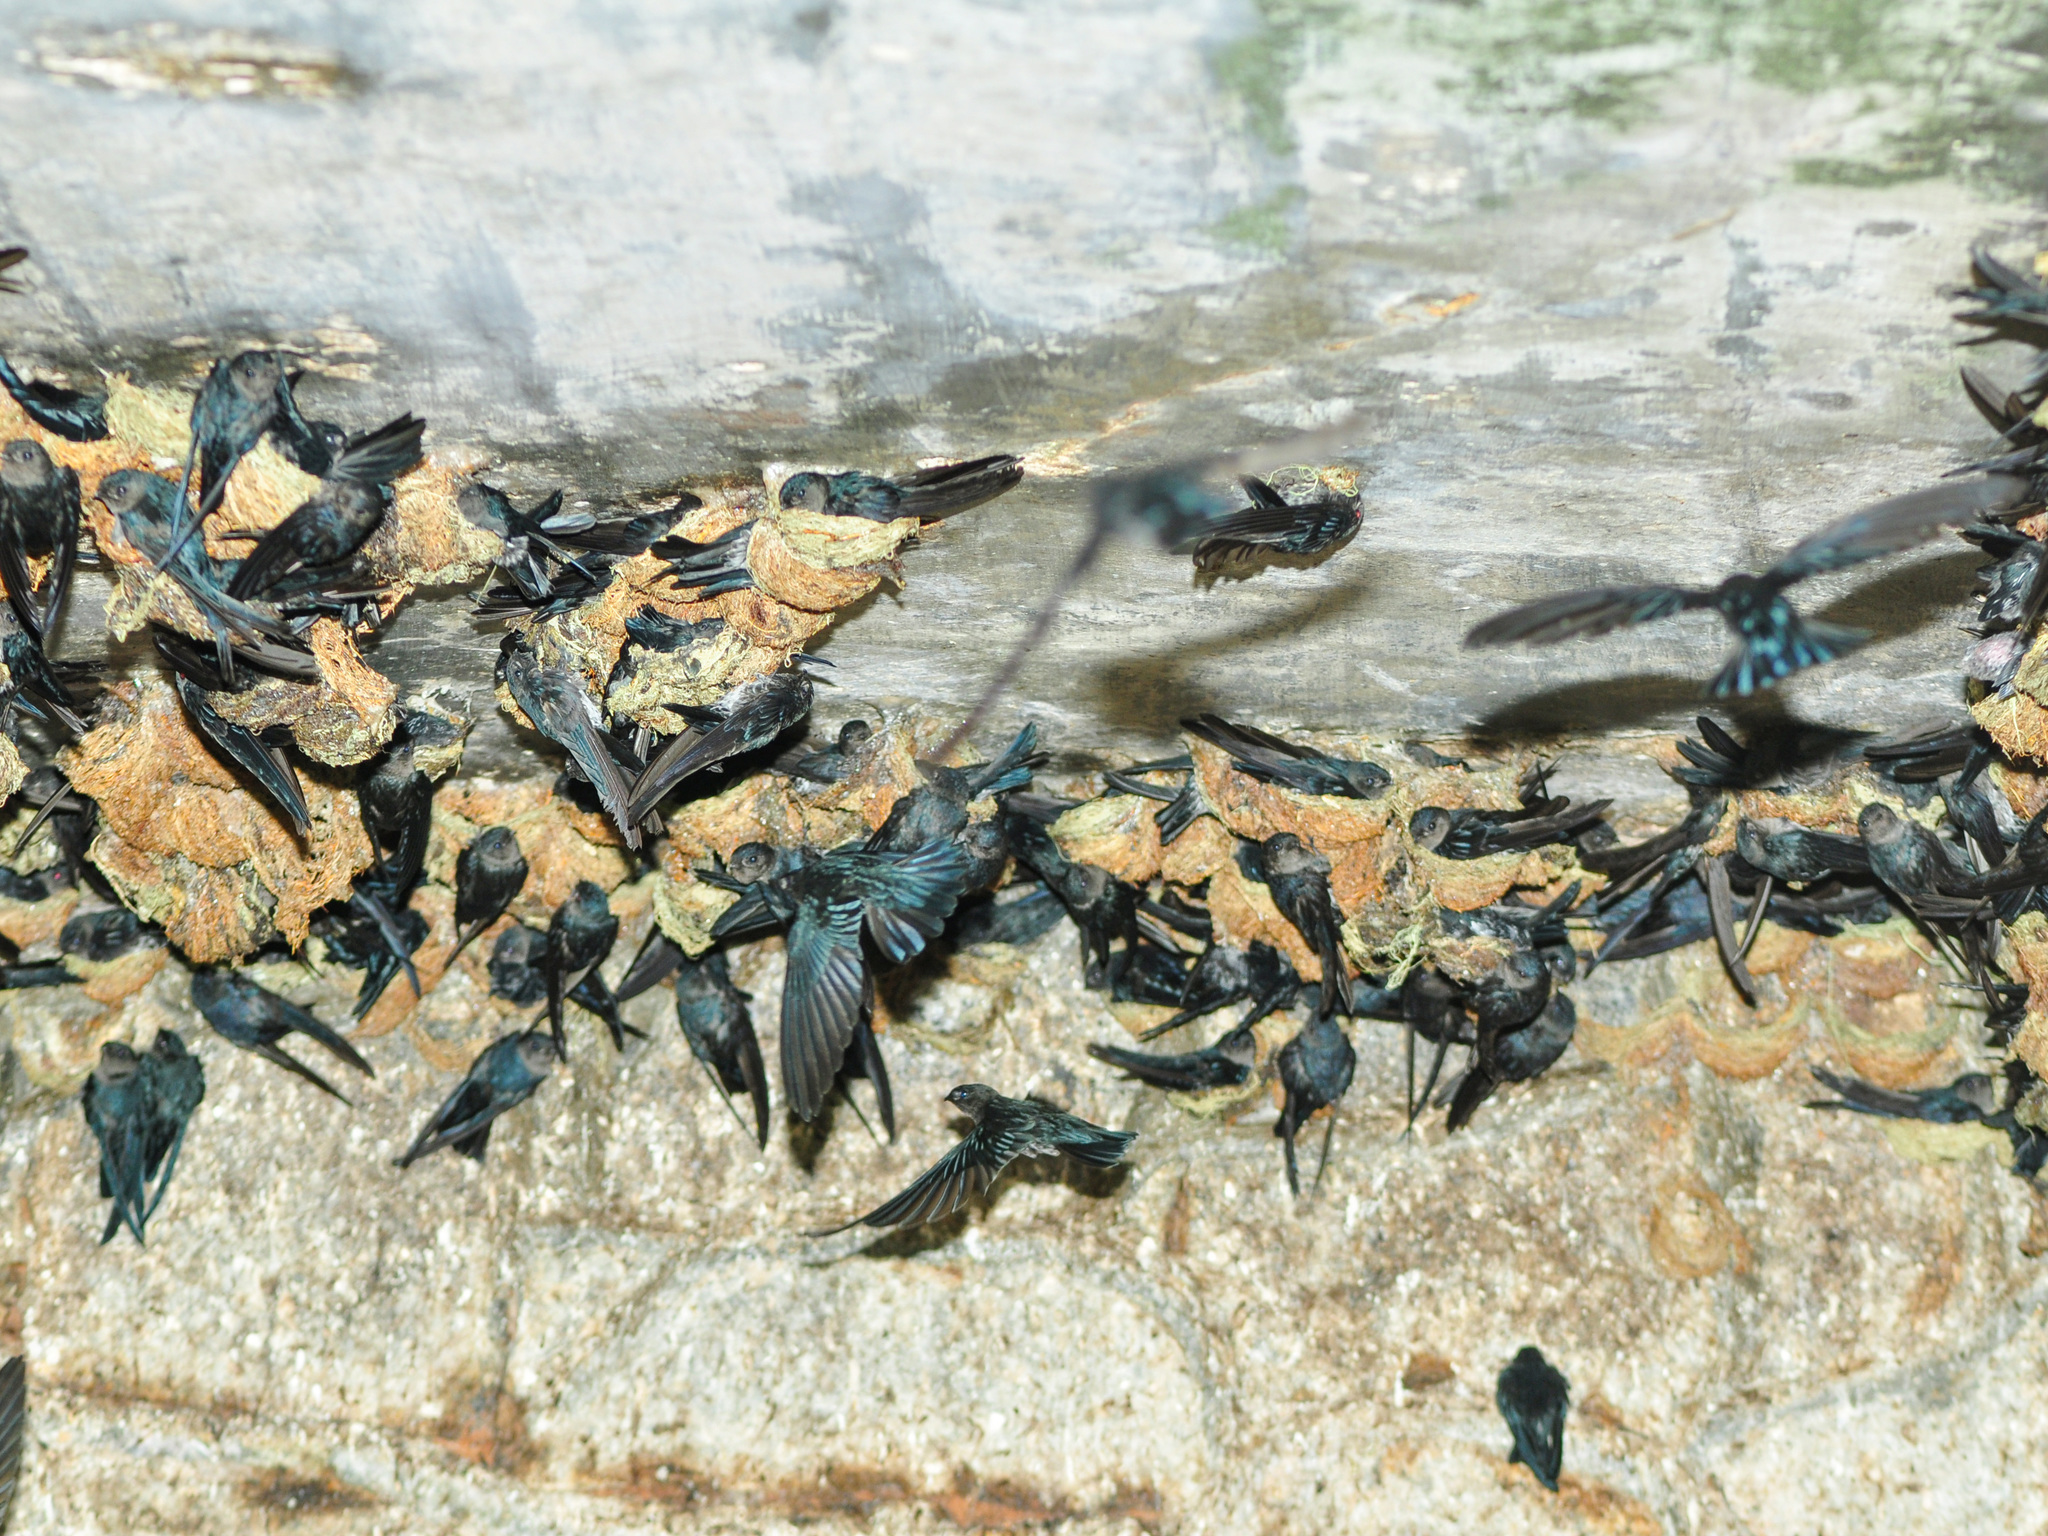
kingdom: Animalia
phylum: Chordata
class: Aves
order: Apodiformes
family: Apodidae
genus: Collocalia
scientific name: Collocalia affinis
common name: Plume-toed swiftlet
